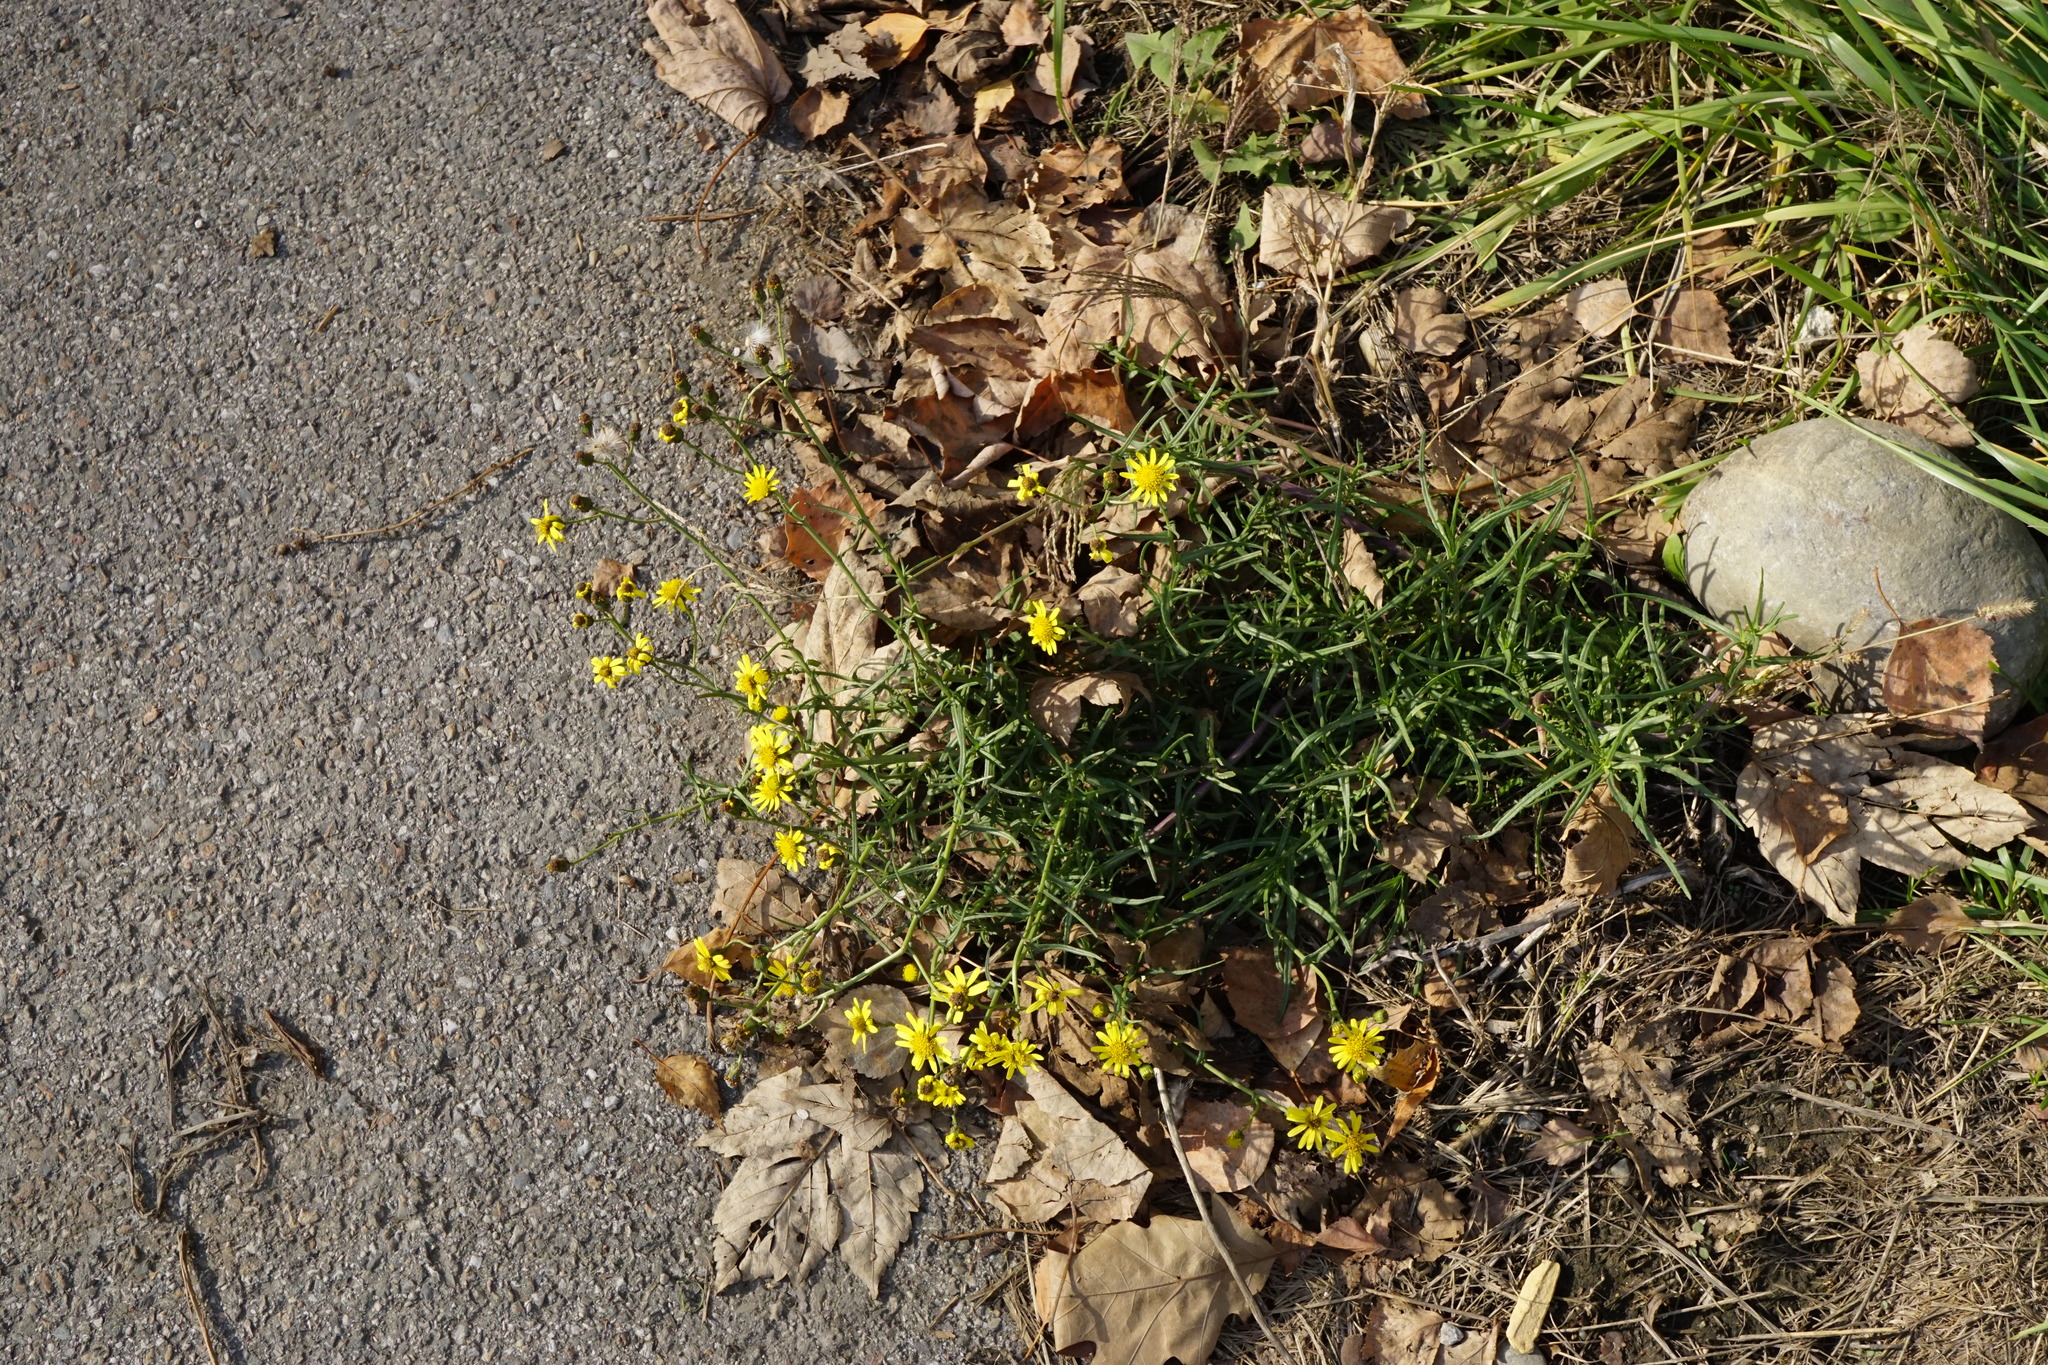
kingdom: Plantae
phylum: Tracheophyta
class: Magnoliopsida
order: Asterales
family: Asteraceae
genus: Senecio
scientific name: Senecio inaequidens
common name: Narrow-leaved ragwort
